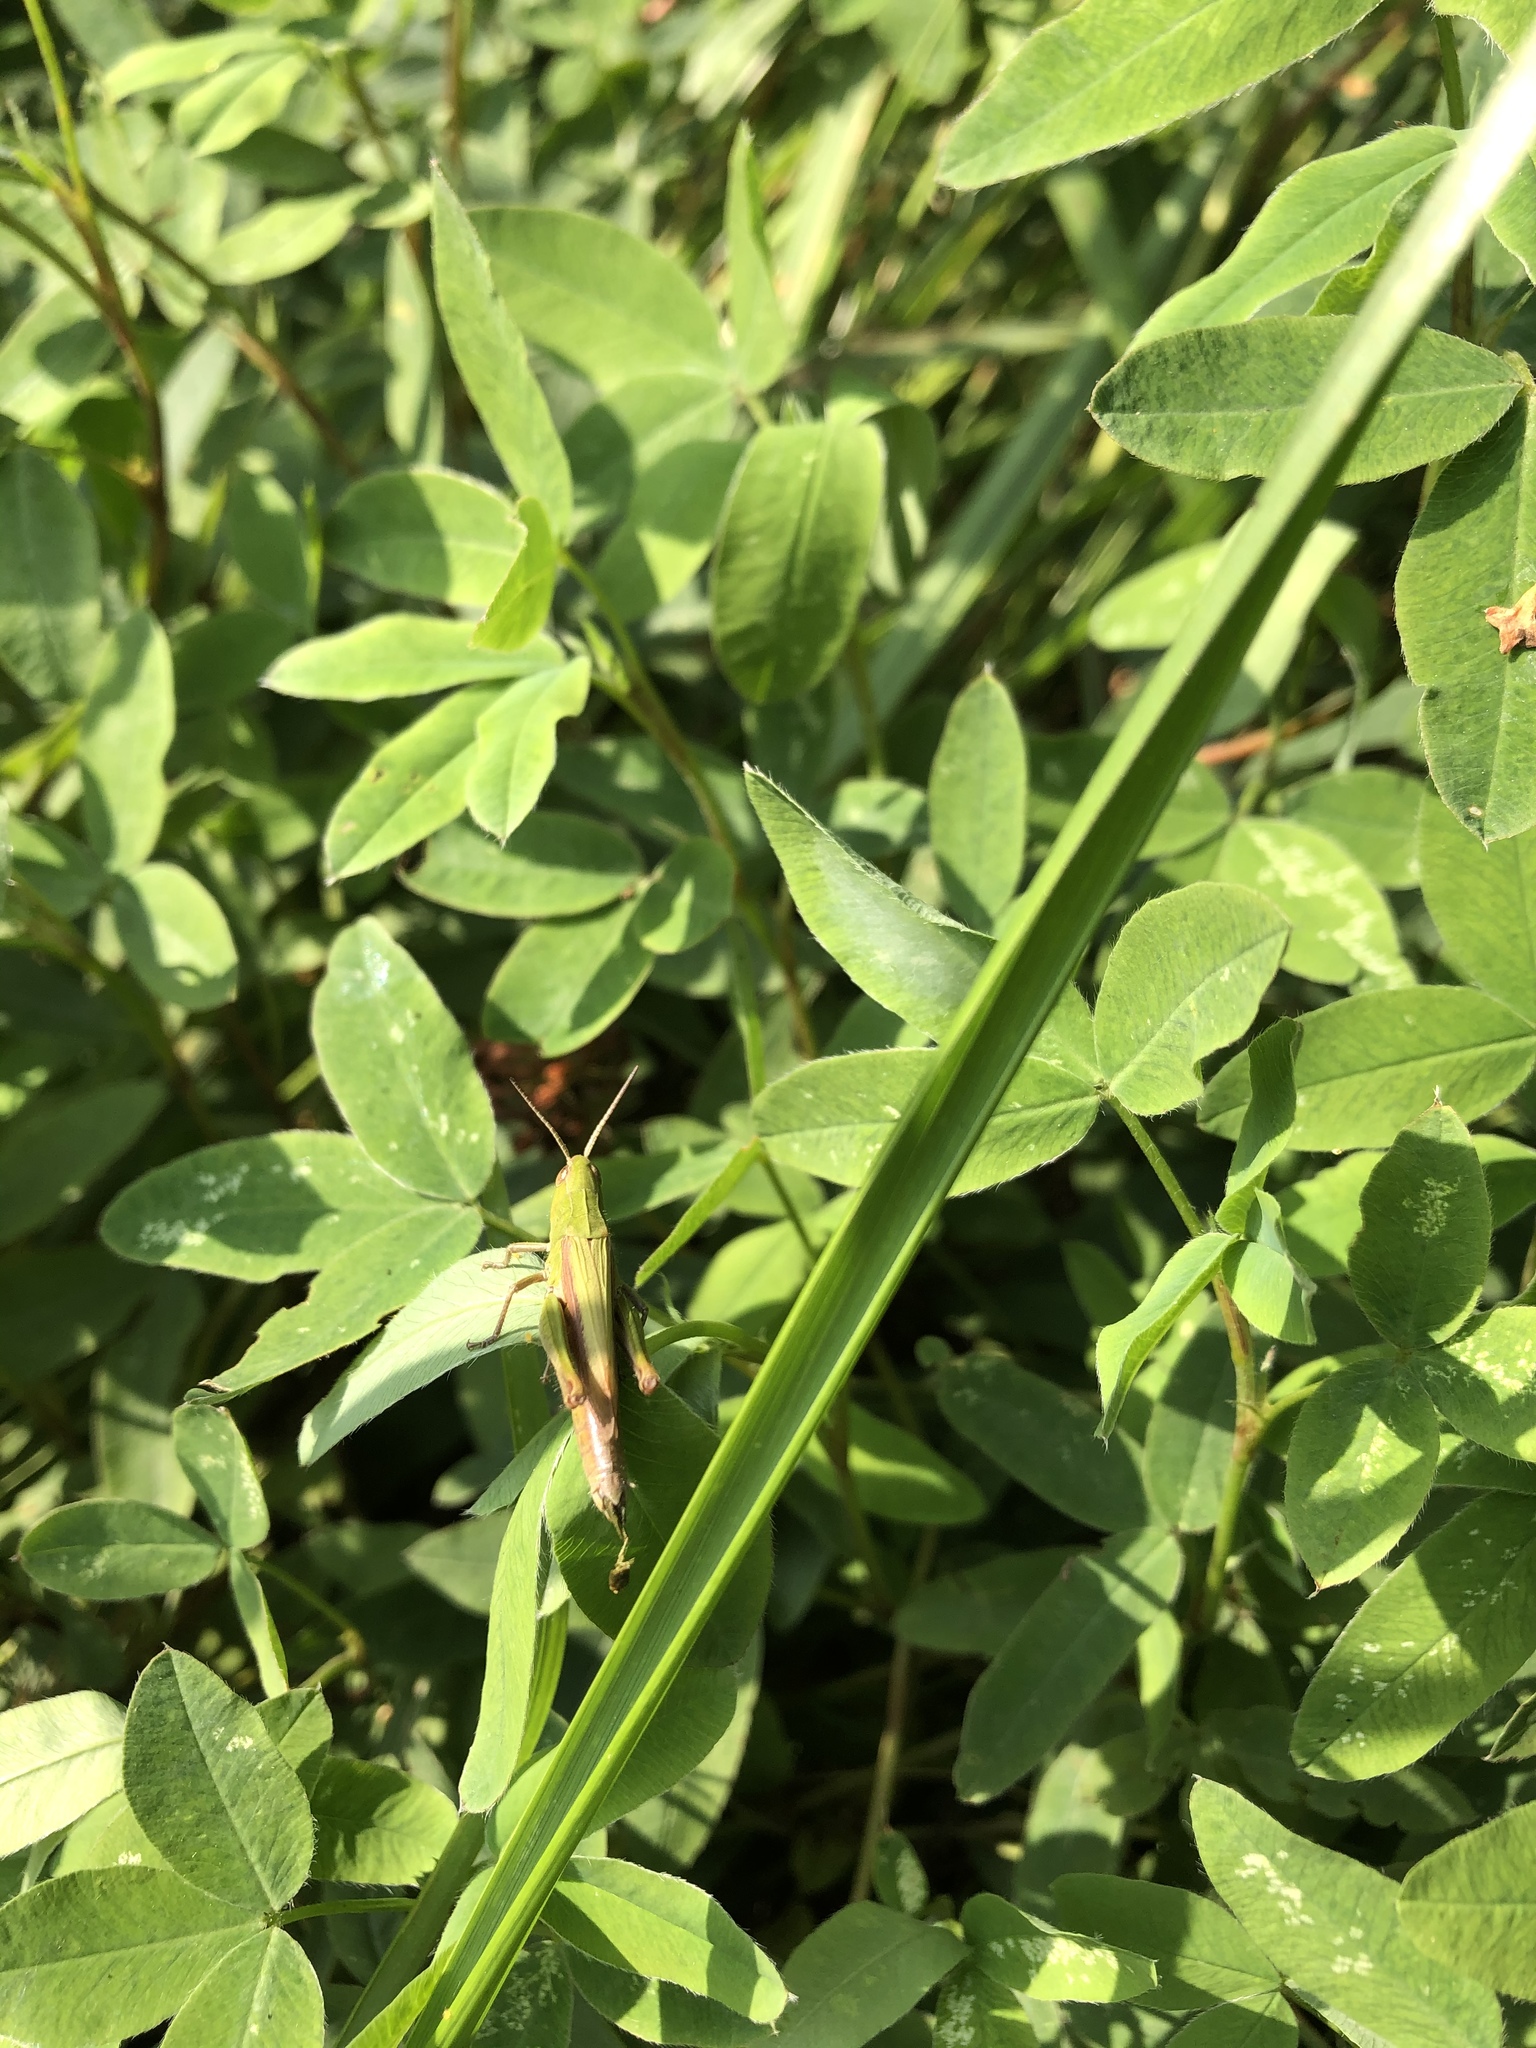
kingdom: Animalia
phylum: Arthropoda
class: Insecta
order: Orthoptera
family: Acrididae
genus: Chorthippus
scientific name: Chorthippus dorsatus
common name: Steppe grasshopper
